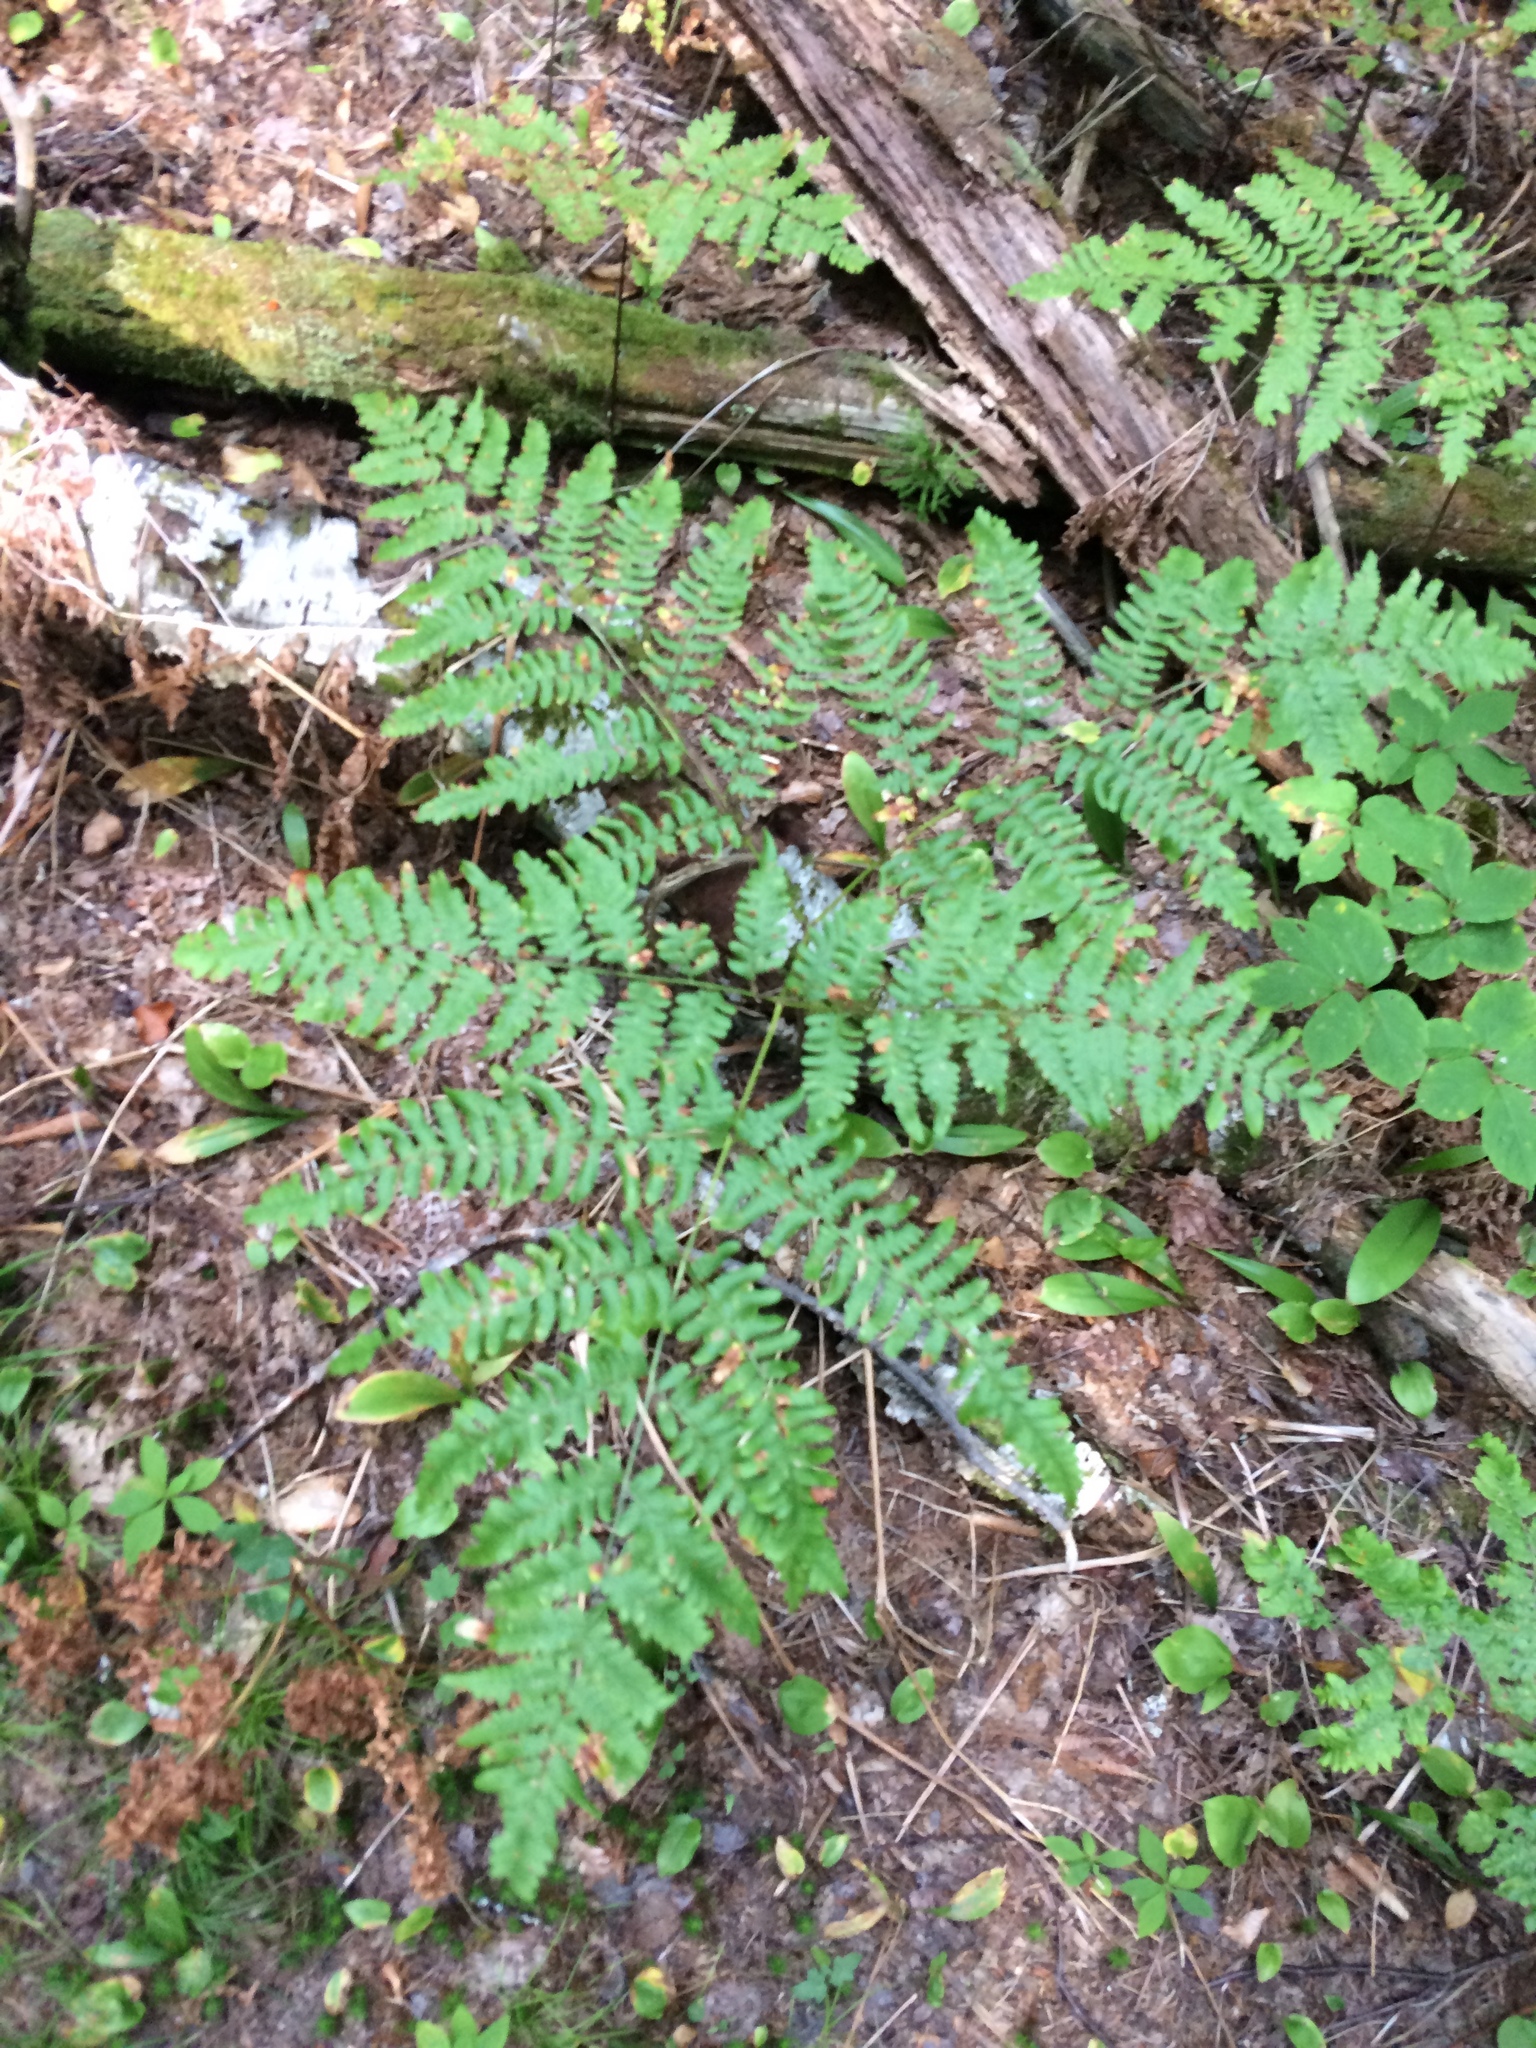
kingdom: Plantae
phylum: Tracheophyta
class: Polypodiopsida
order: Polypodiales
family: Dennstaedtiaceae
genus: Pteridium
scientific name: Pteridium aquilinum
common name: Bracken
